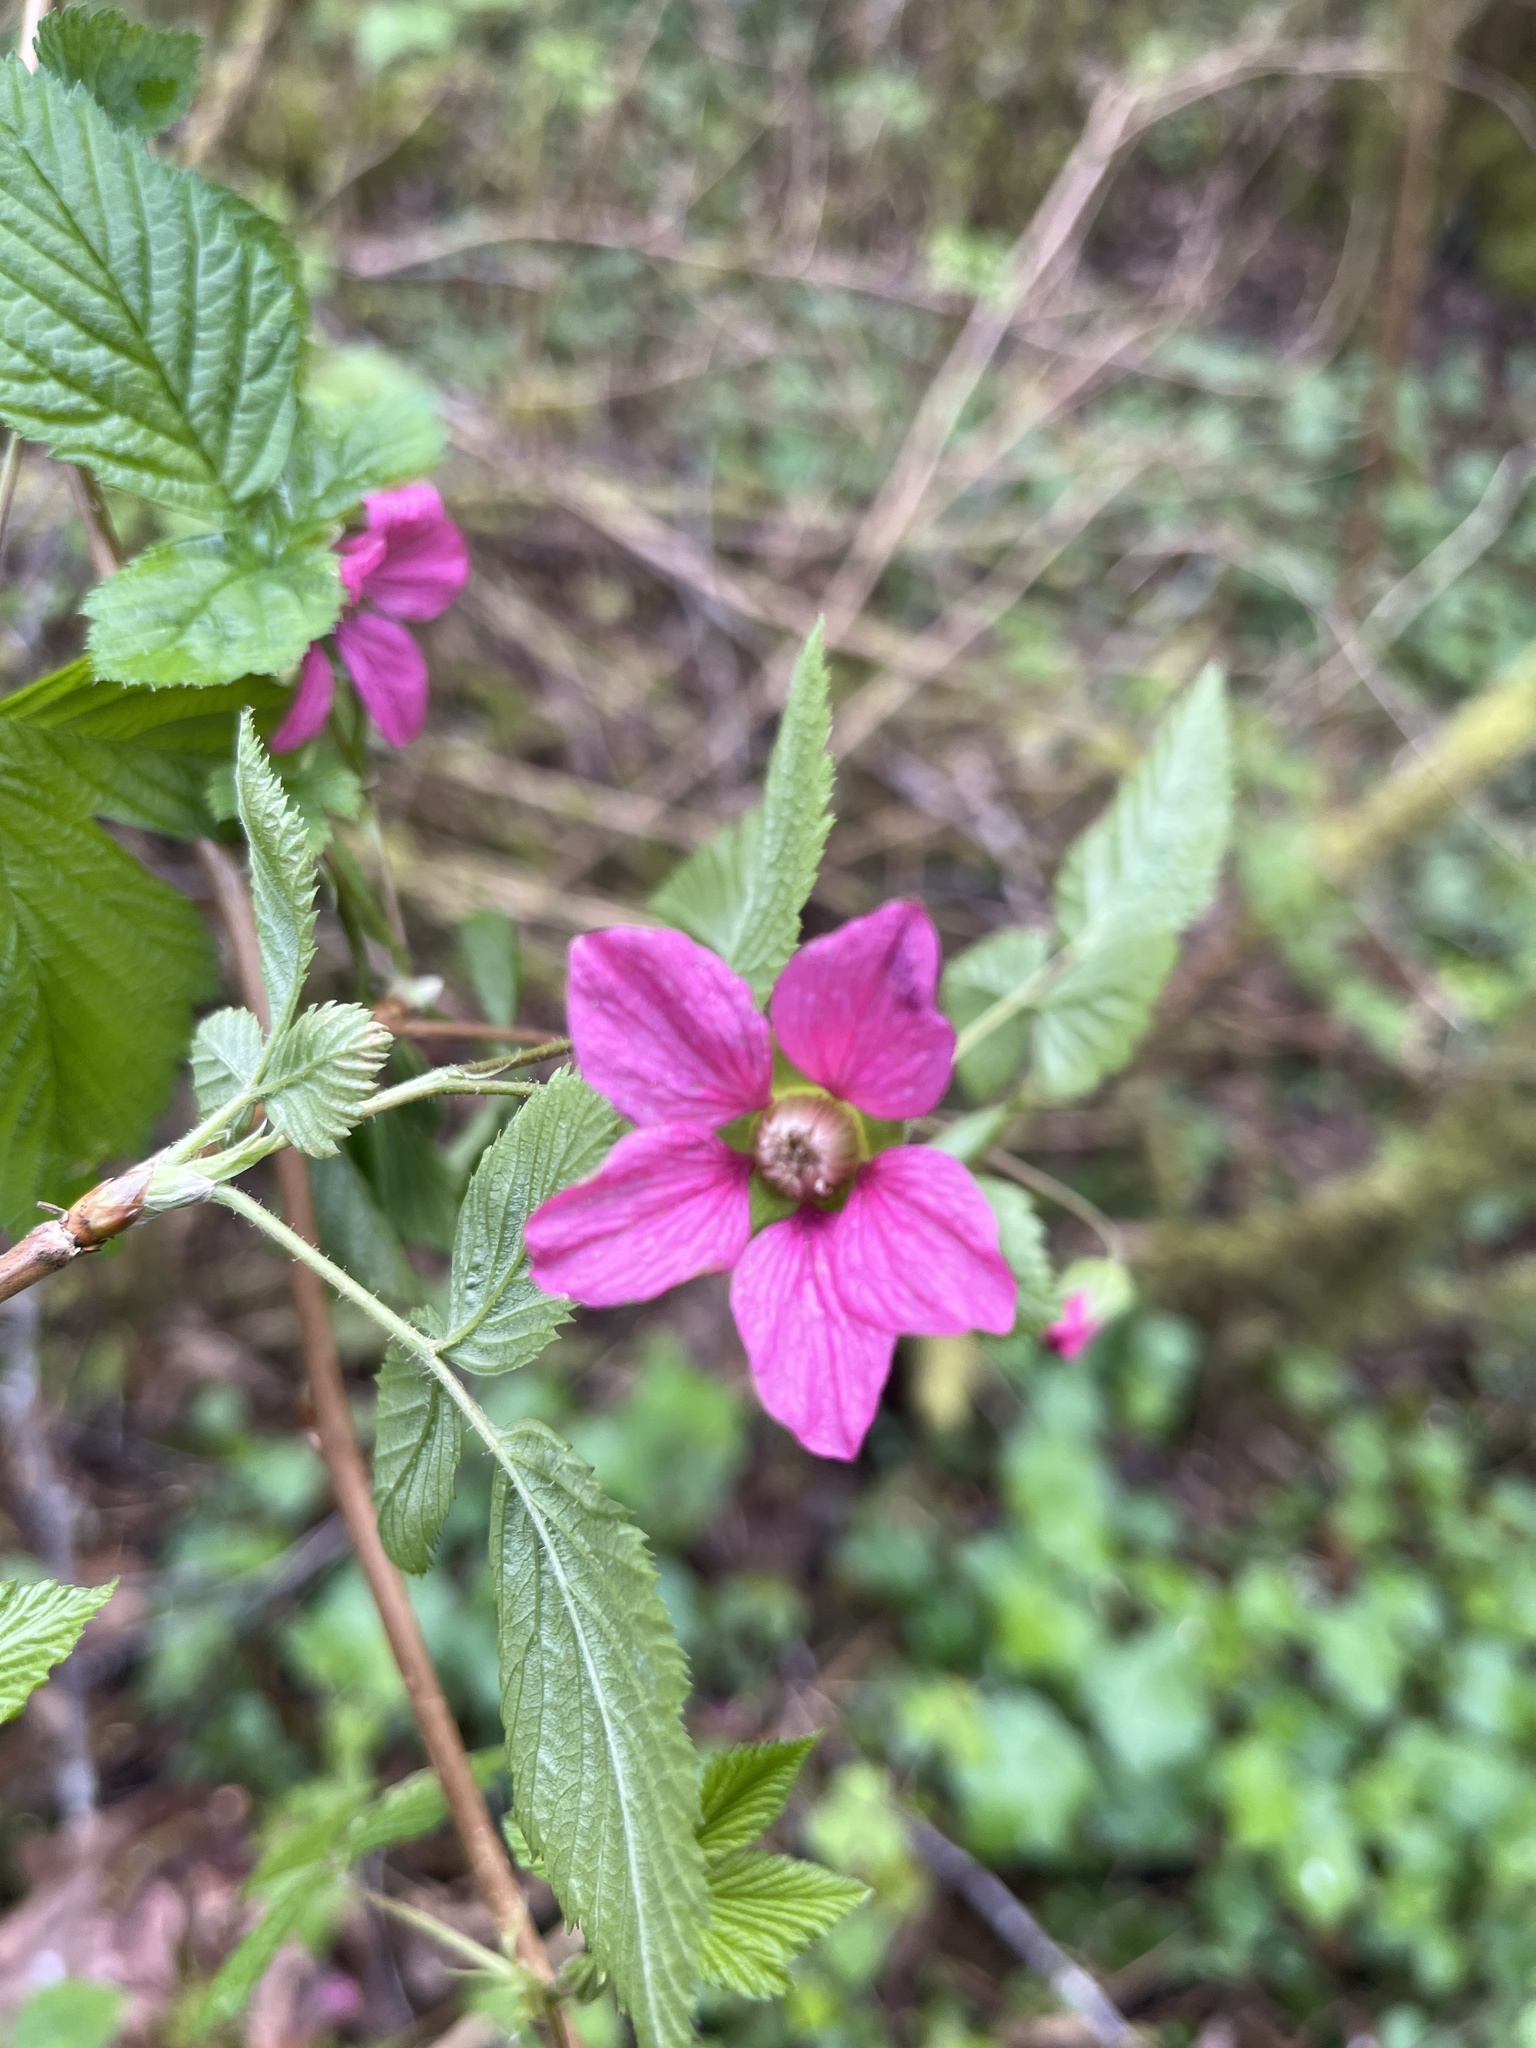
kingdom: Plantae
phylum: Tracheophyta
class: Magnoliopsida
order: Rosales
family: Rosaceae
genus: Rubus
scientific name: Rubus spectabilis
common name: Salmonberry
